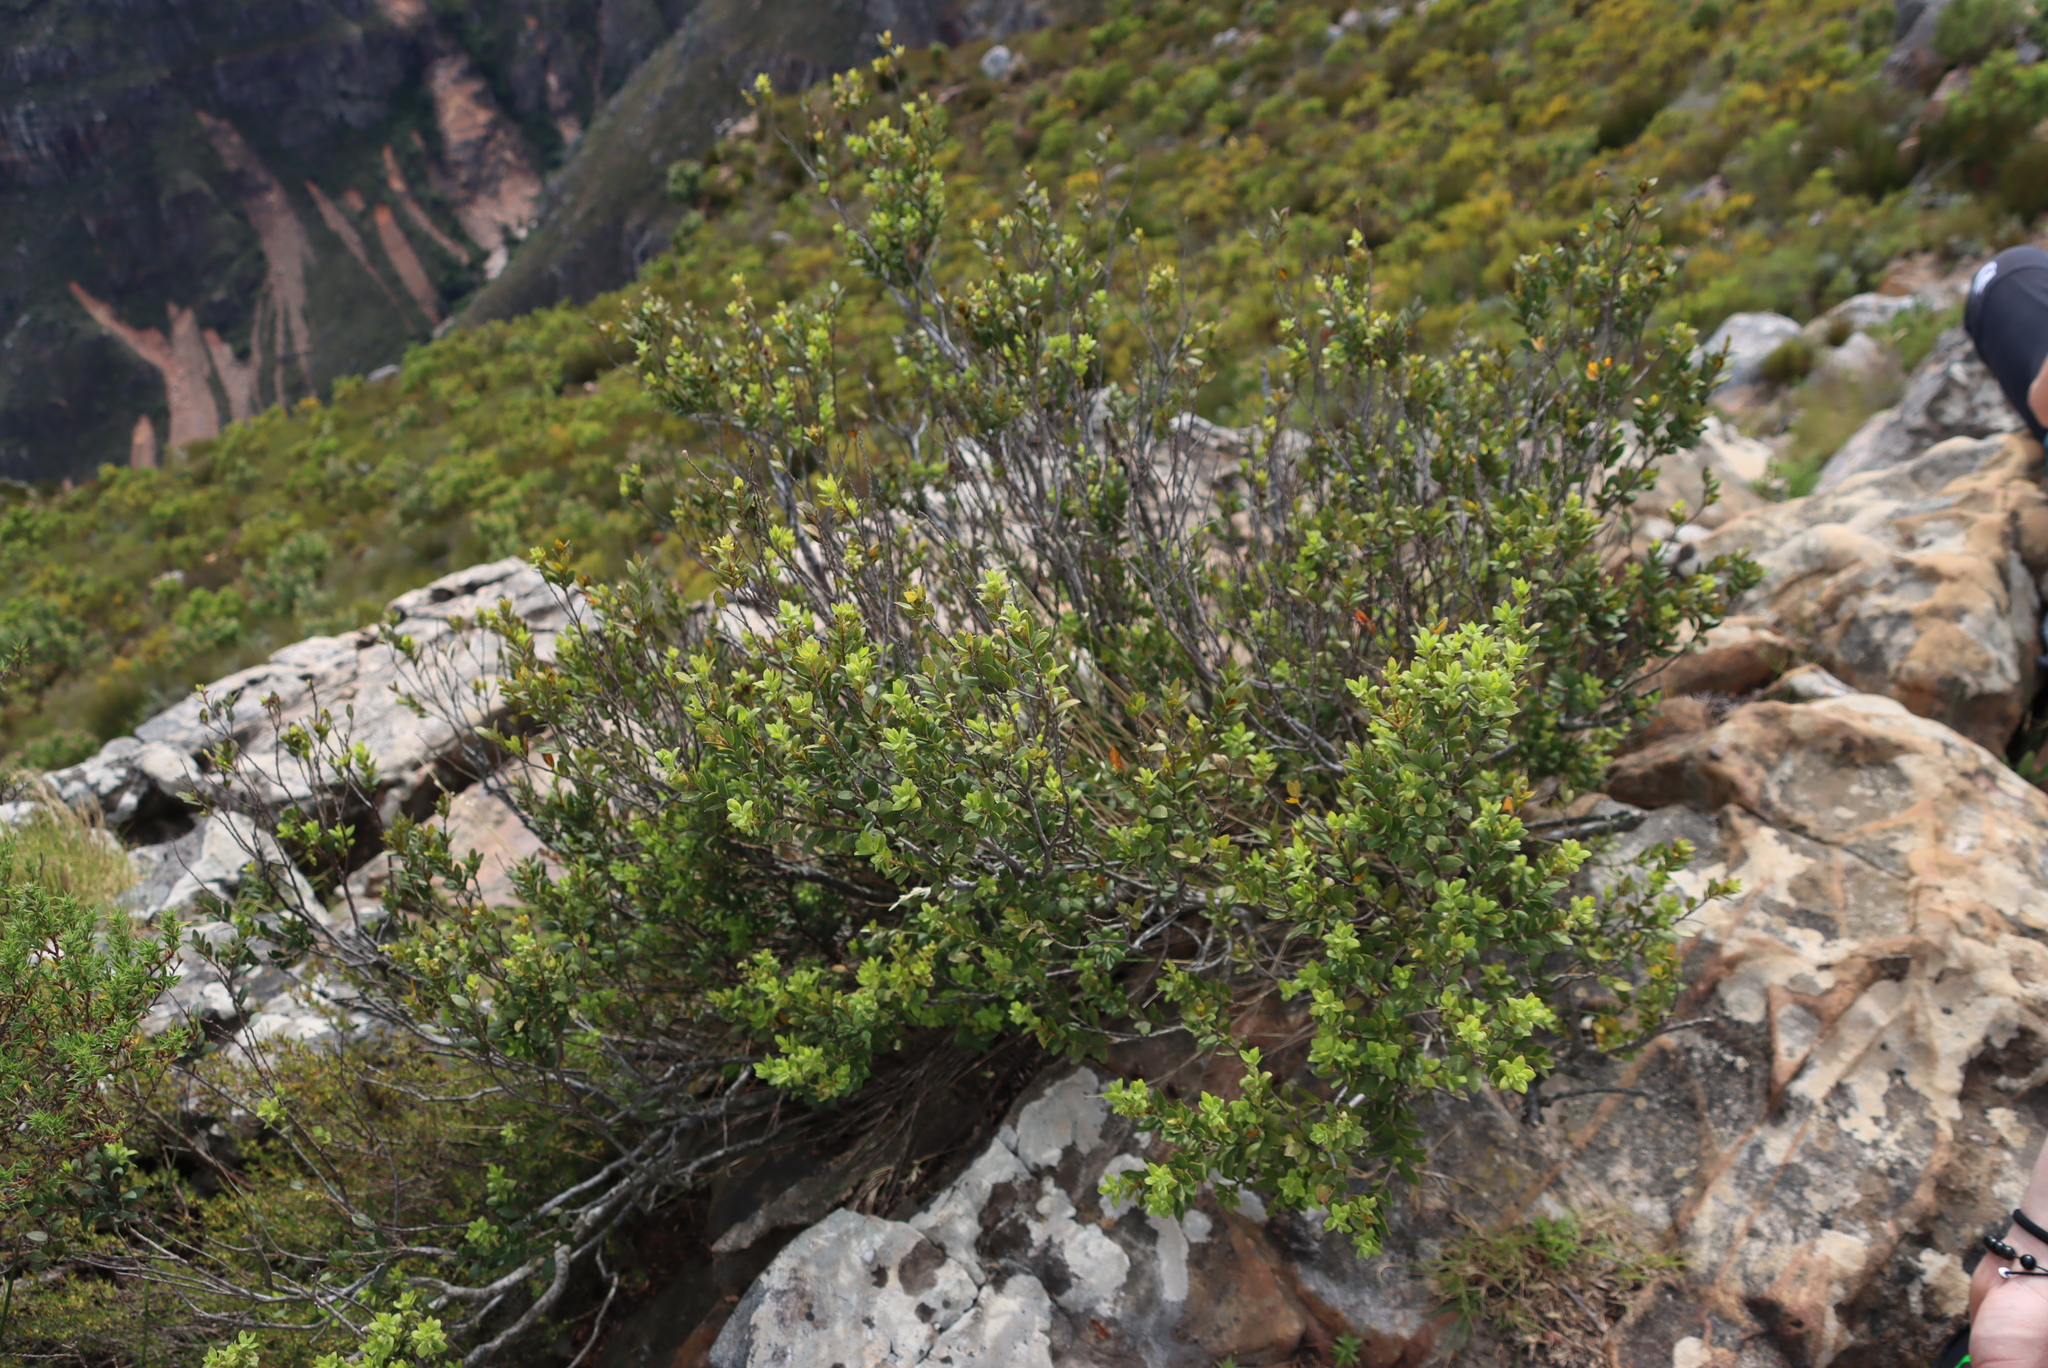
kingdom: Plantae
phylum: Tracheophyta
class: Magnoliopsida
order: Rosales
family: Rosaceae
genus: Cliffortia
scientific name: Cliffortia ruscifolia
